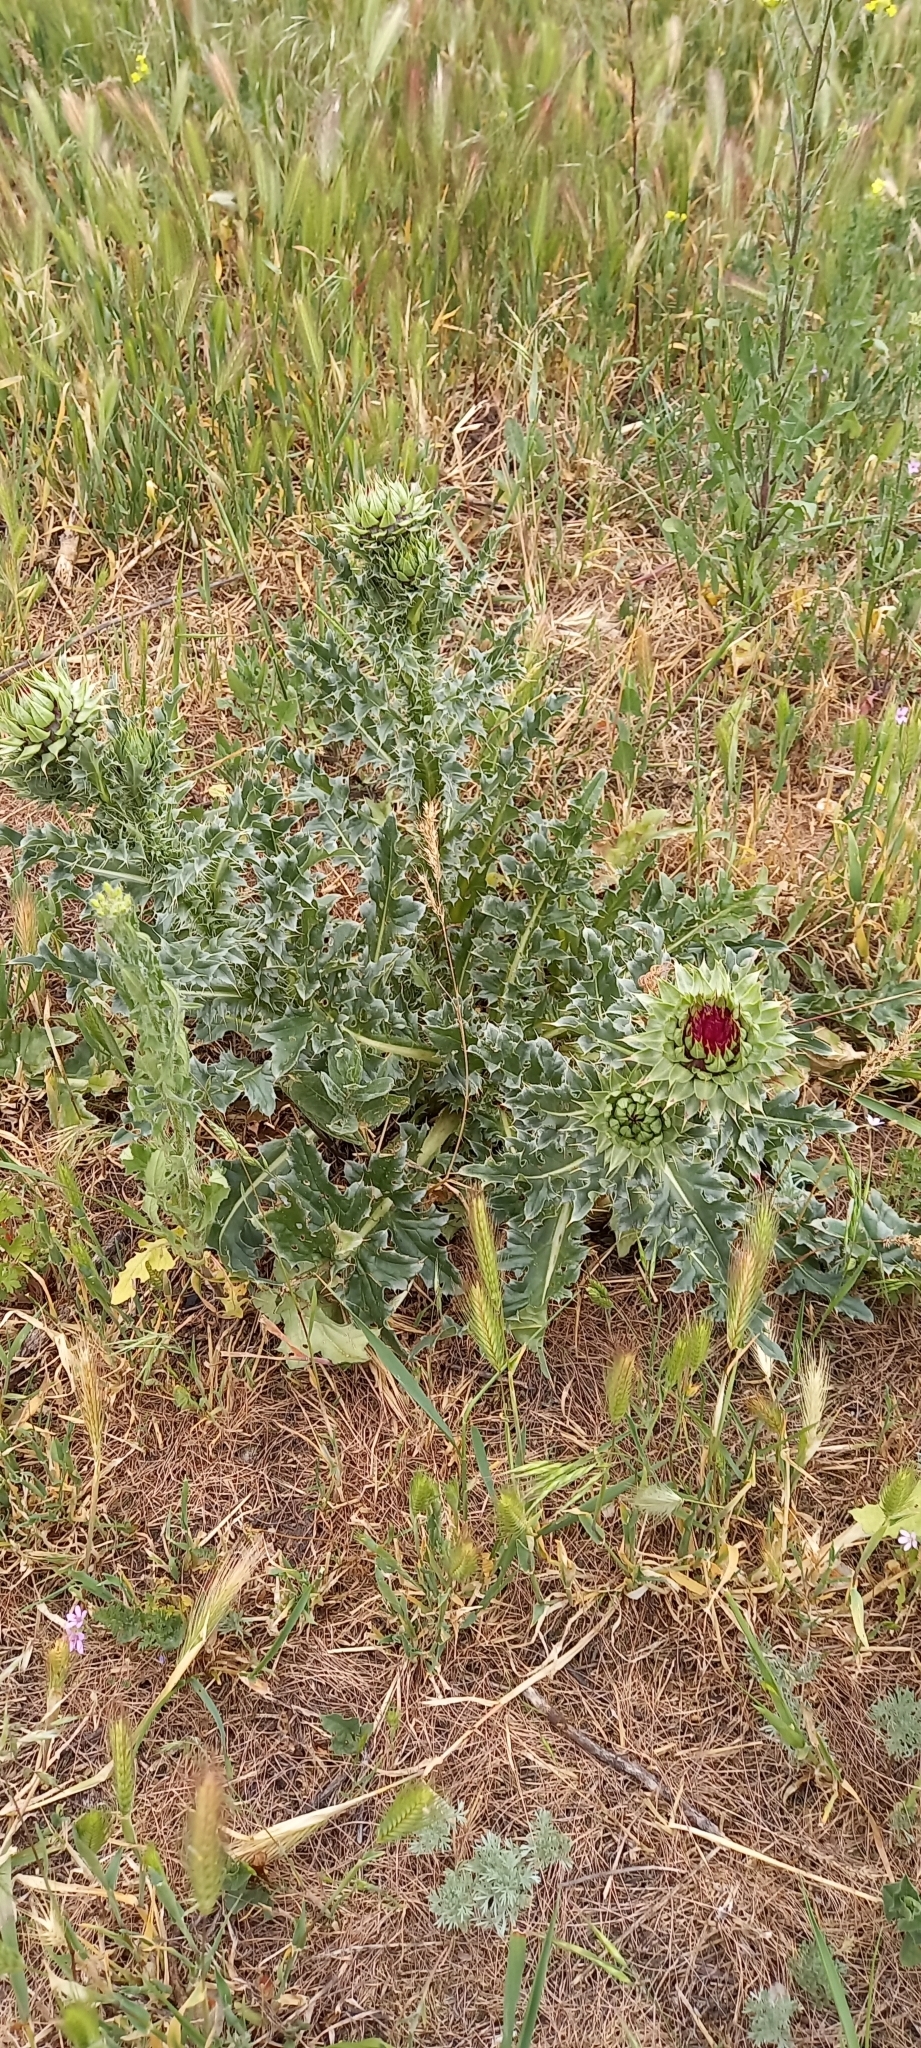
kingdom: Plantae
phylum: Tracheophyta
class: Magnoliopsida
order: Asterales
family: Asteraceae
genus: Carduus
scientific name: Carduus nutans
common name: Musk thistle
